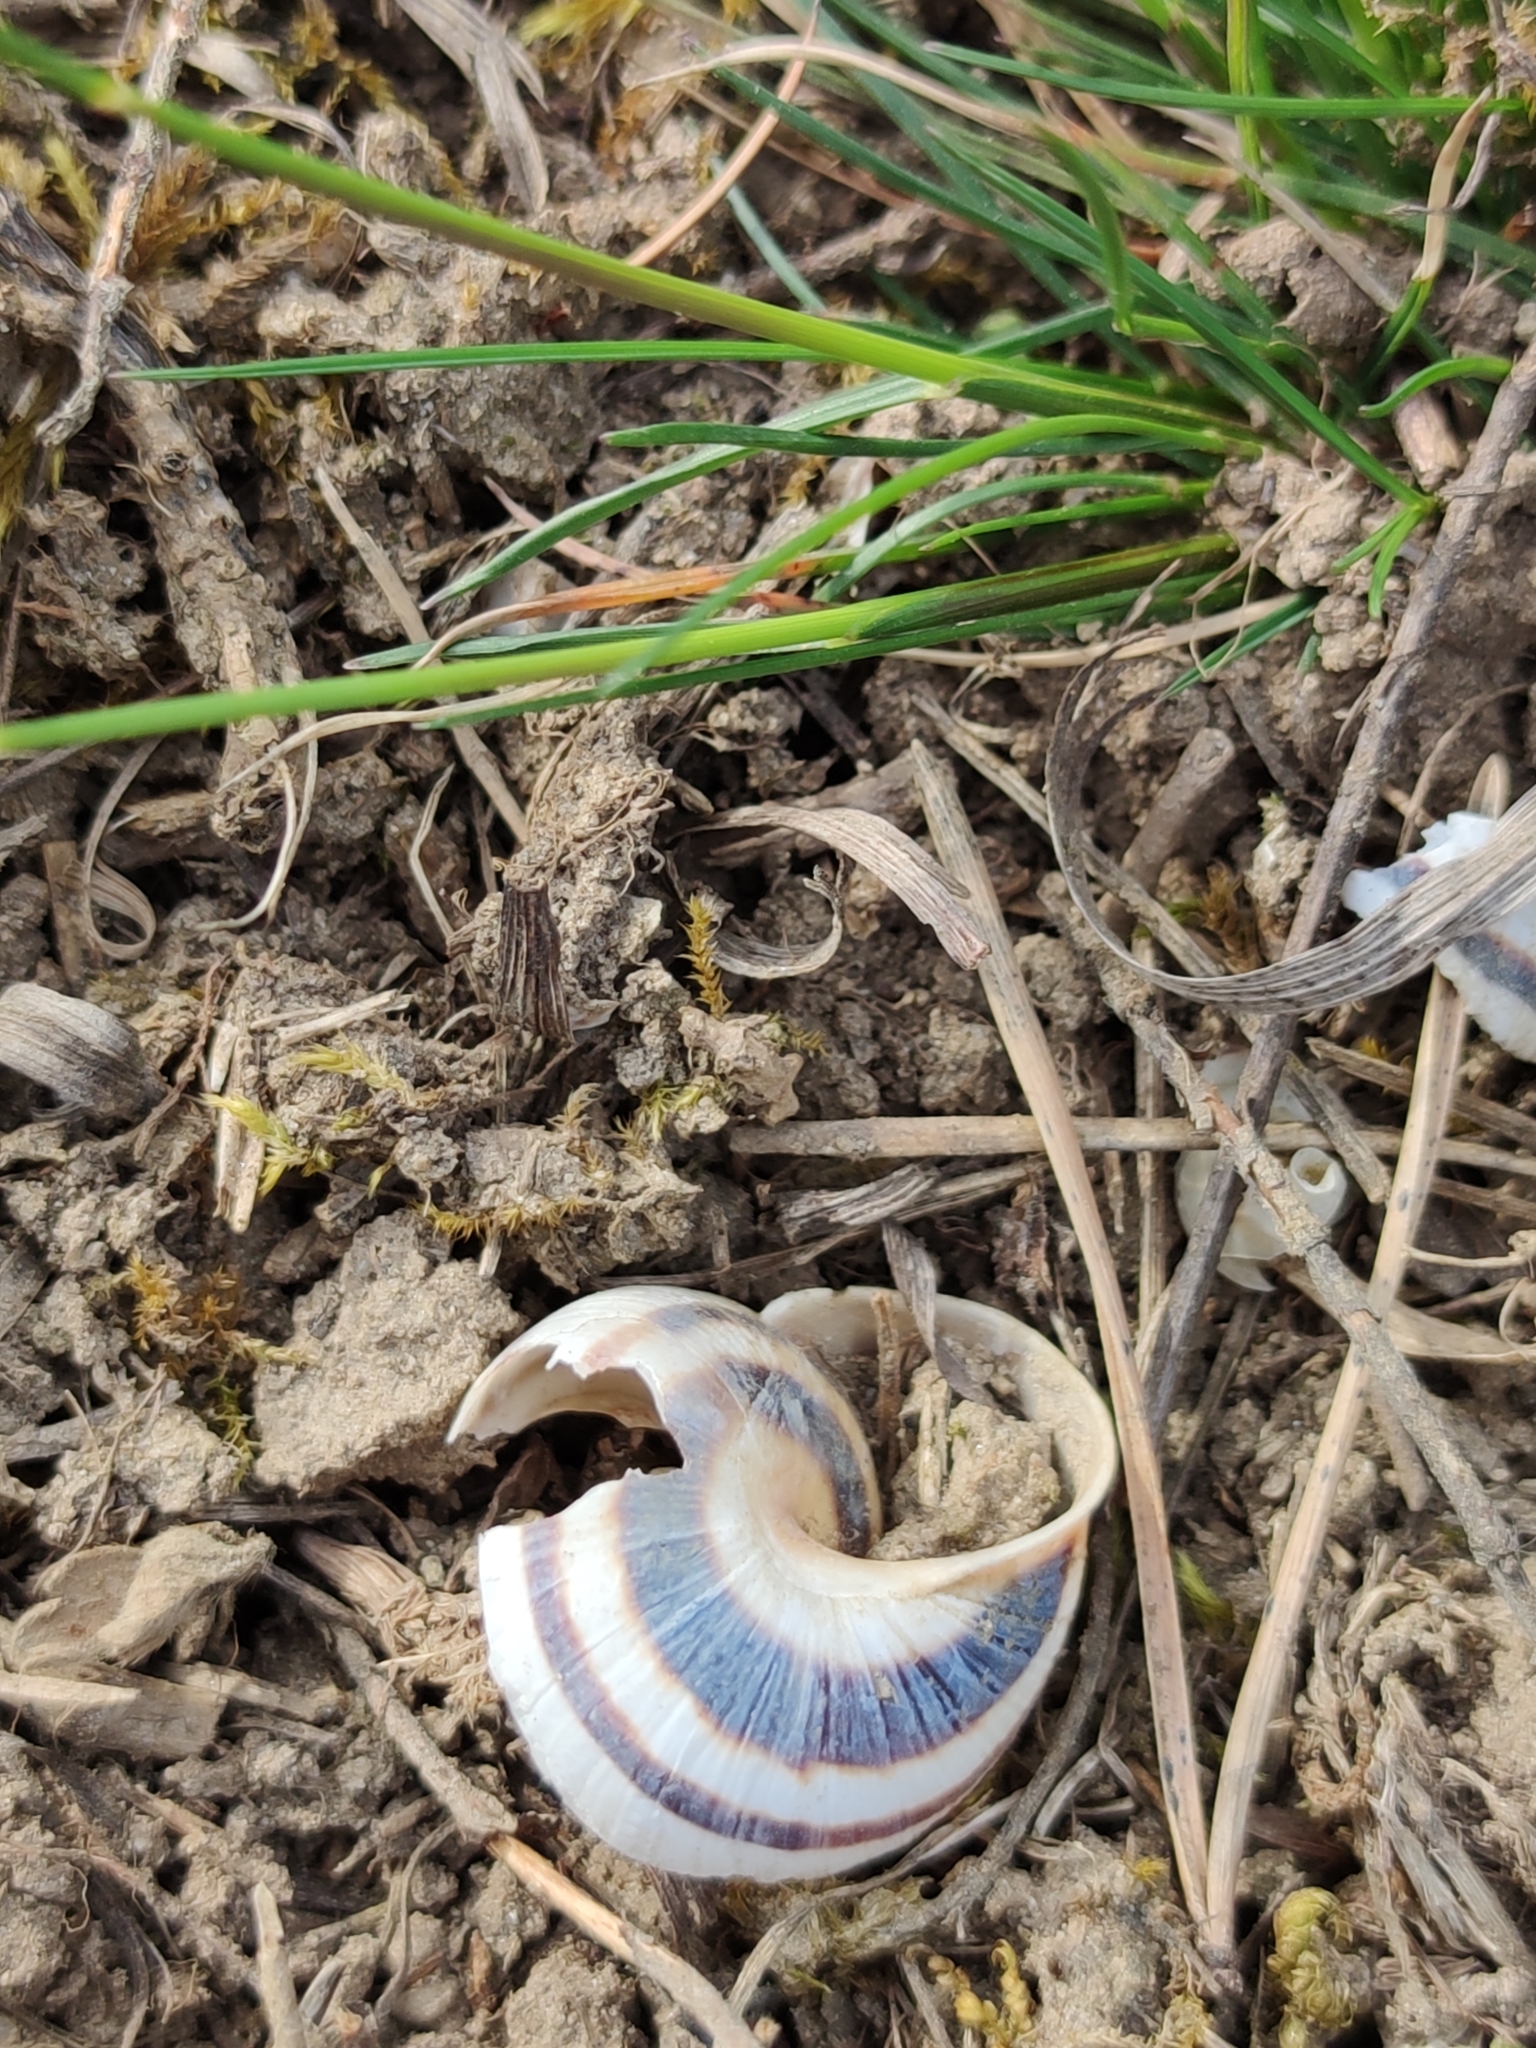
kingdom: Animalia
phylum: Mollusca
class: Gastropoda
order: Stylommatophora
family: Helicidae
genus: Caucasotachea
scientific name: Caucasotachea vindobonensis
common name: European helicid land snail
